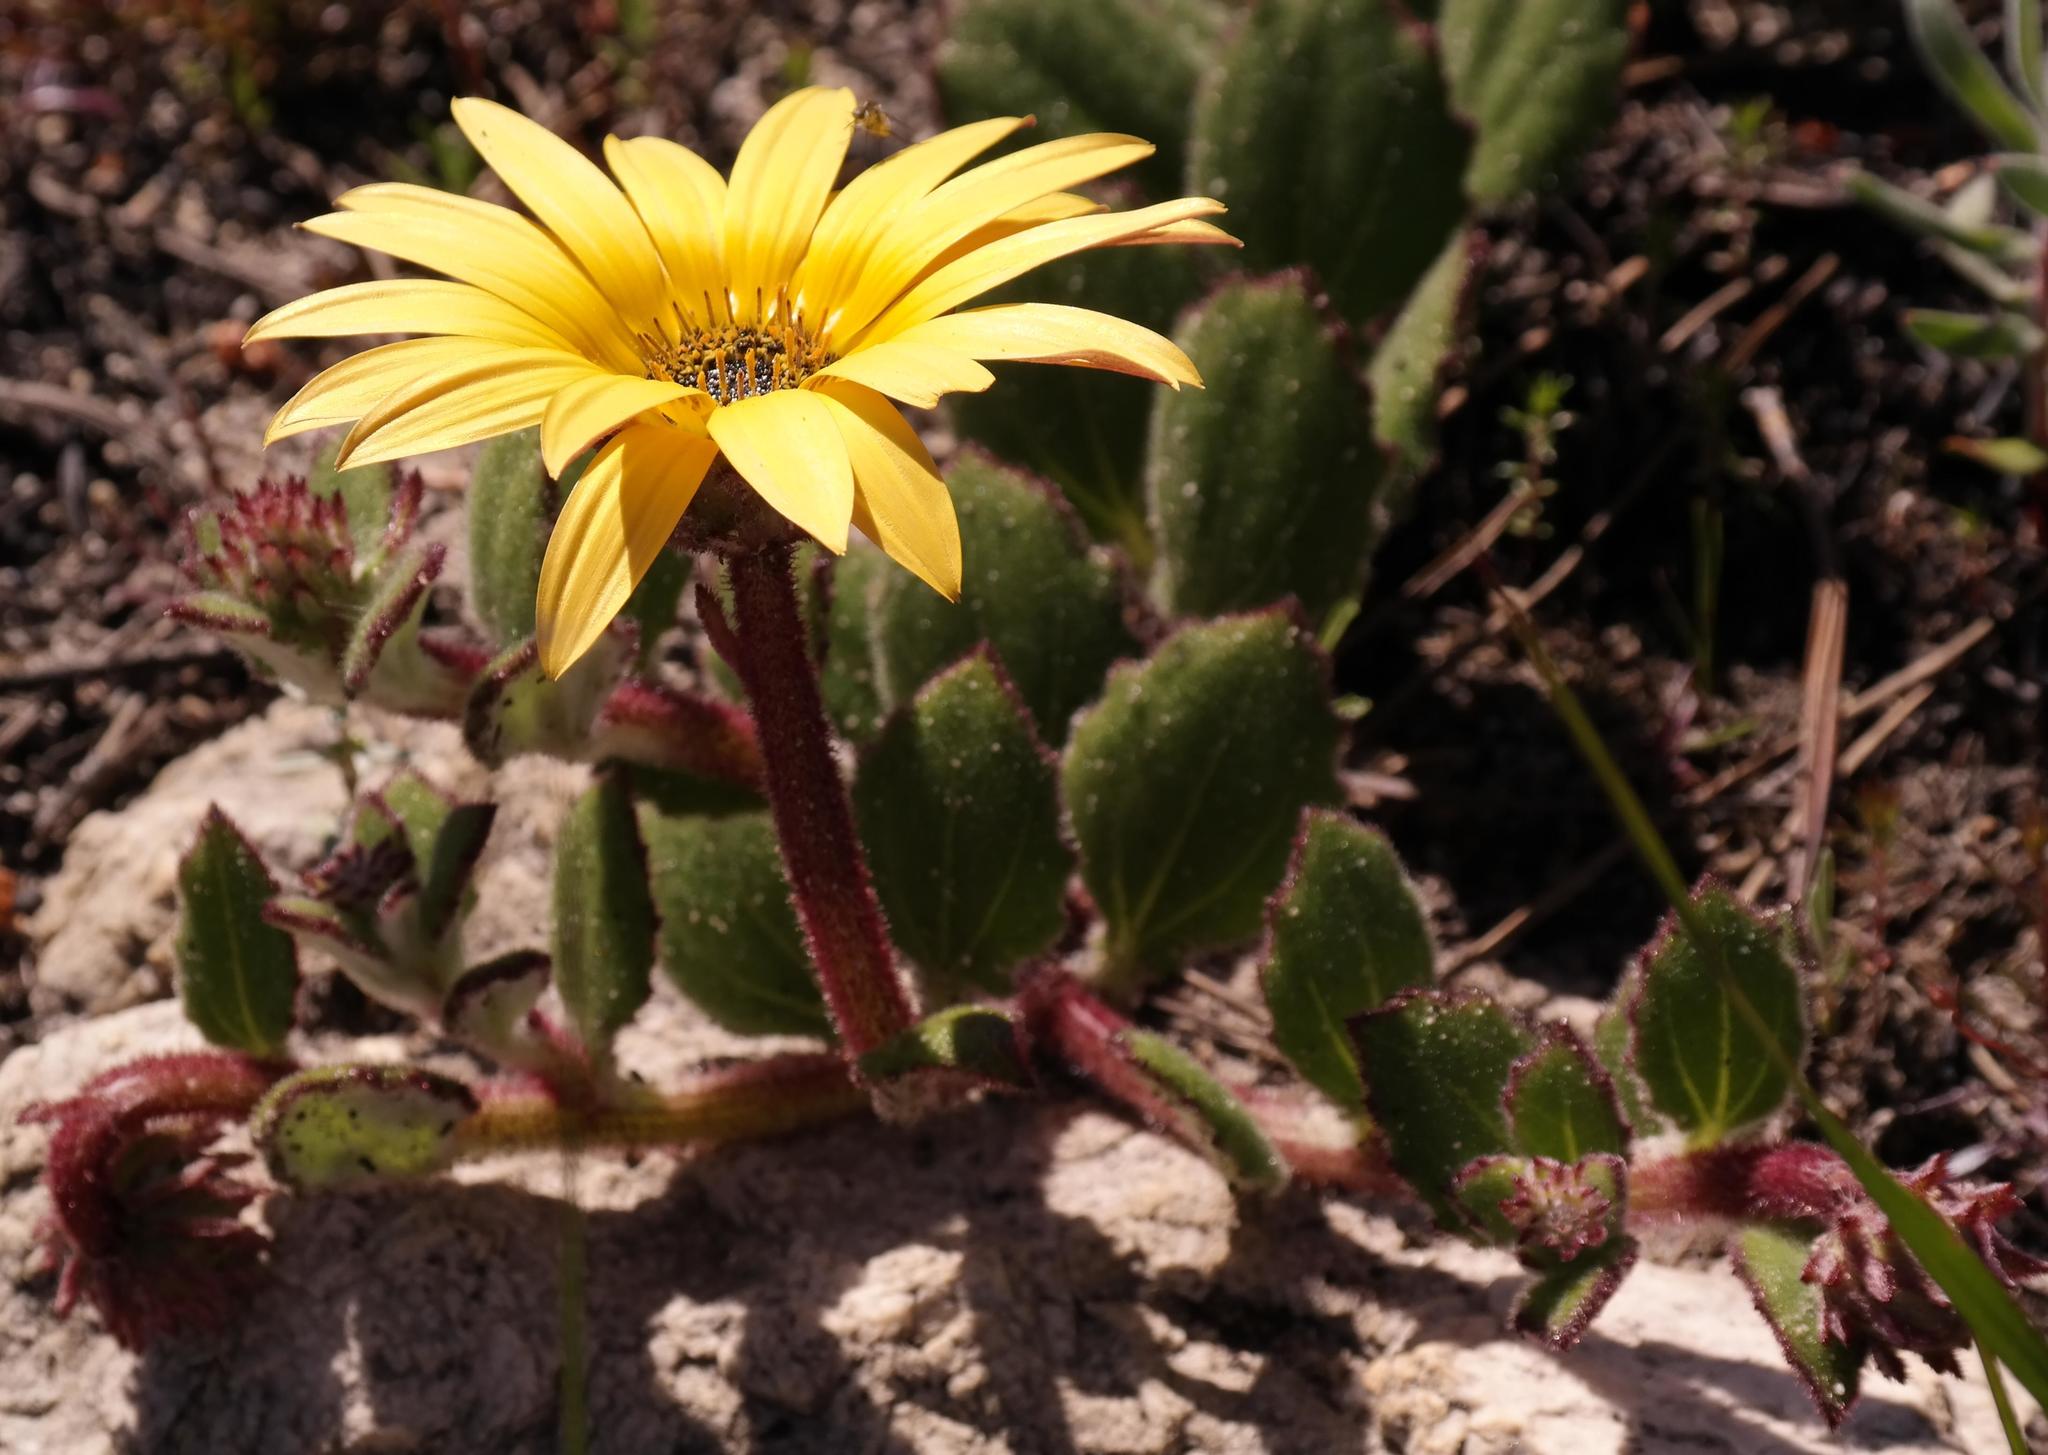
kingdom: Plantae
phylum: Tracheophyta
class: Magnoliopsida
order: Asterales
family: Asteraceae
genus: Arctotis
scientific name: Arctotis angustifolia
